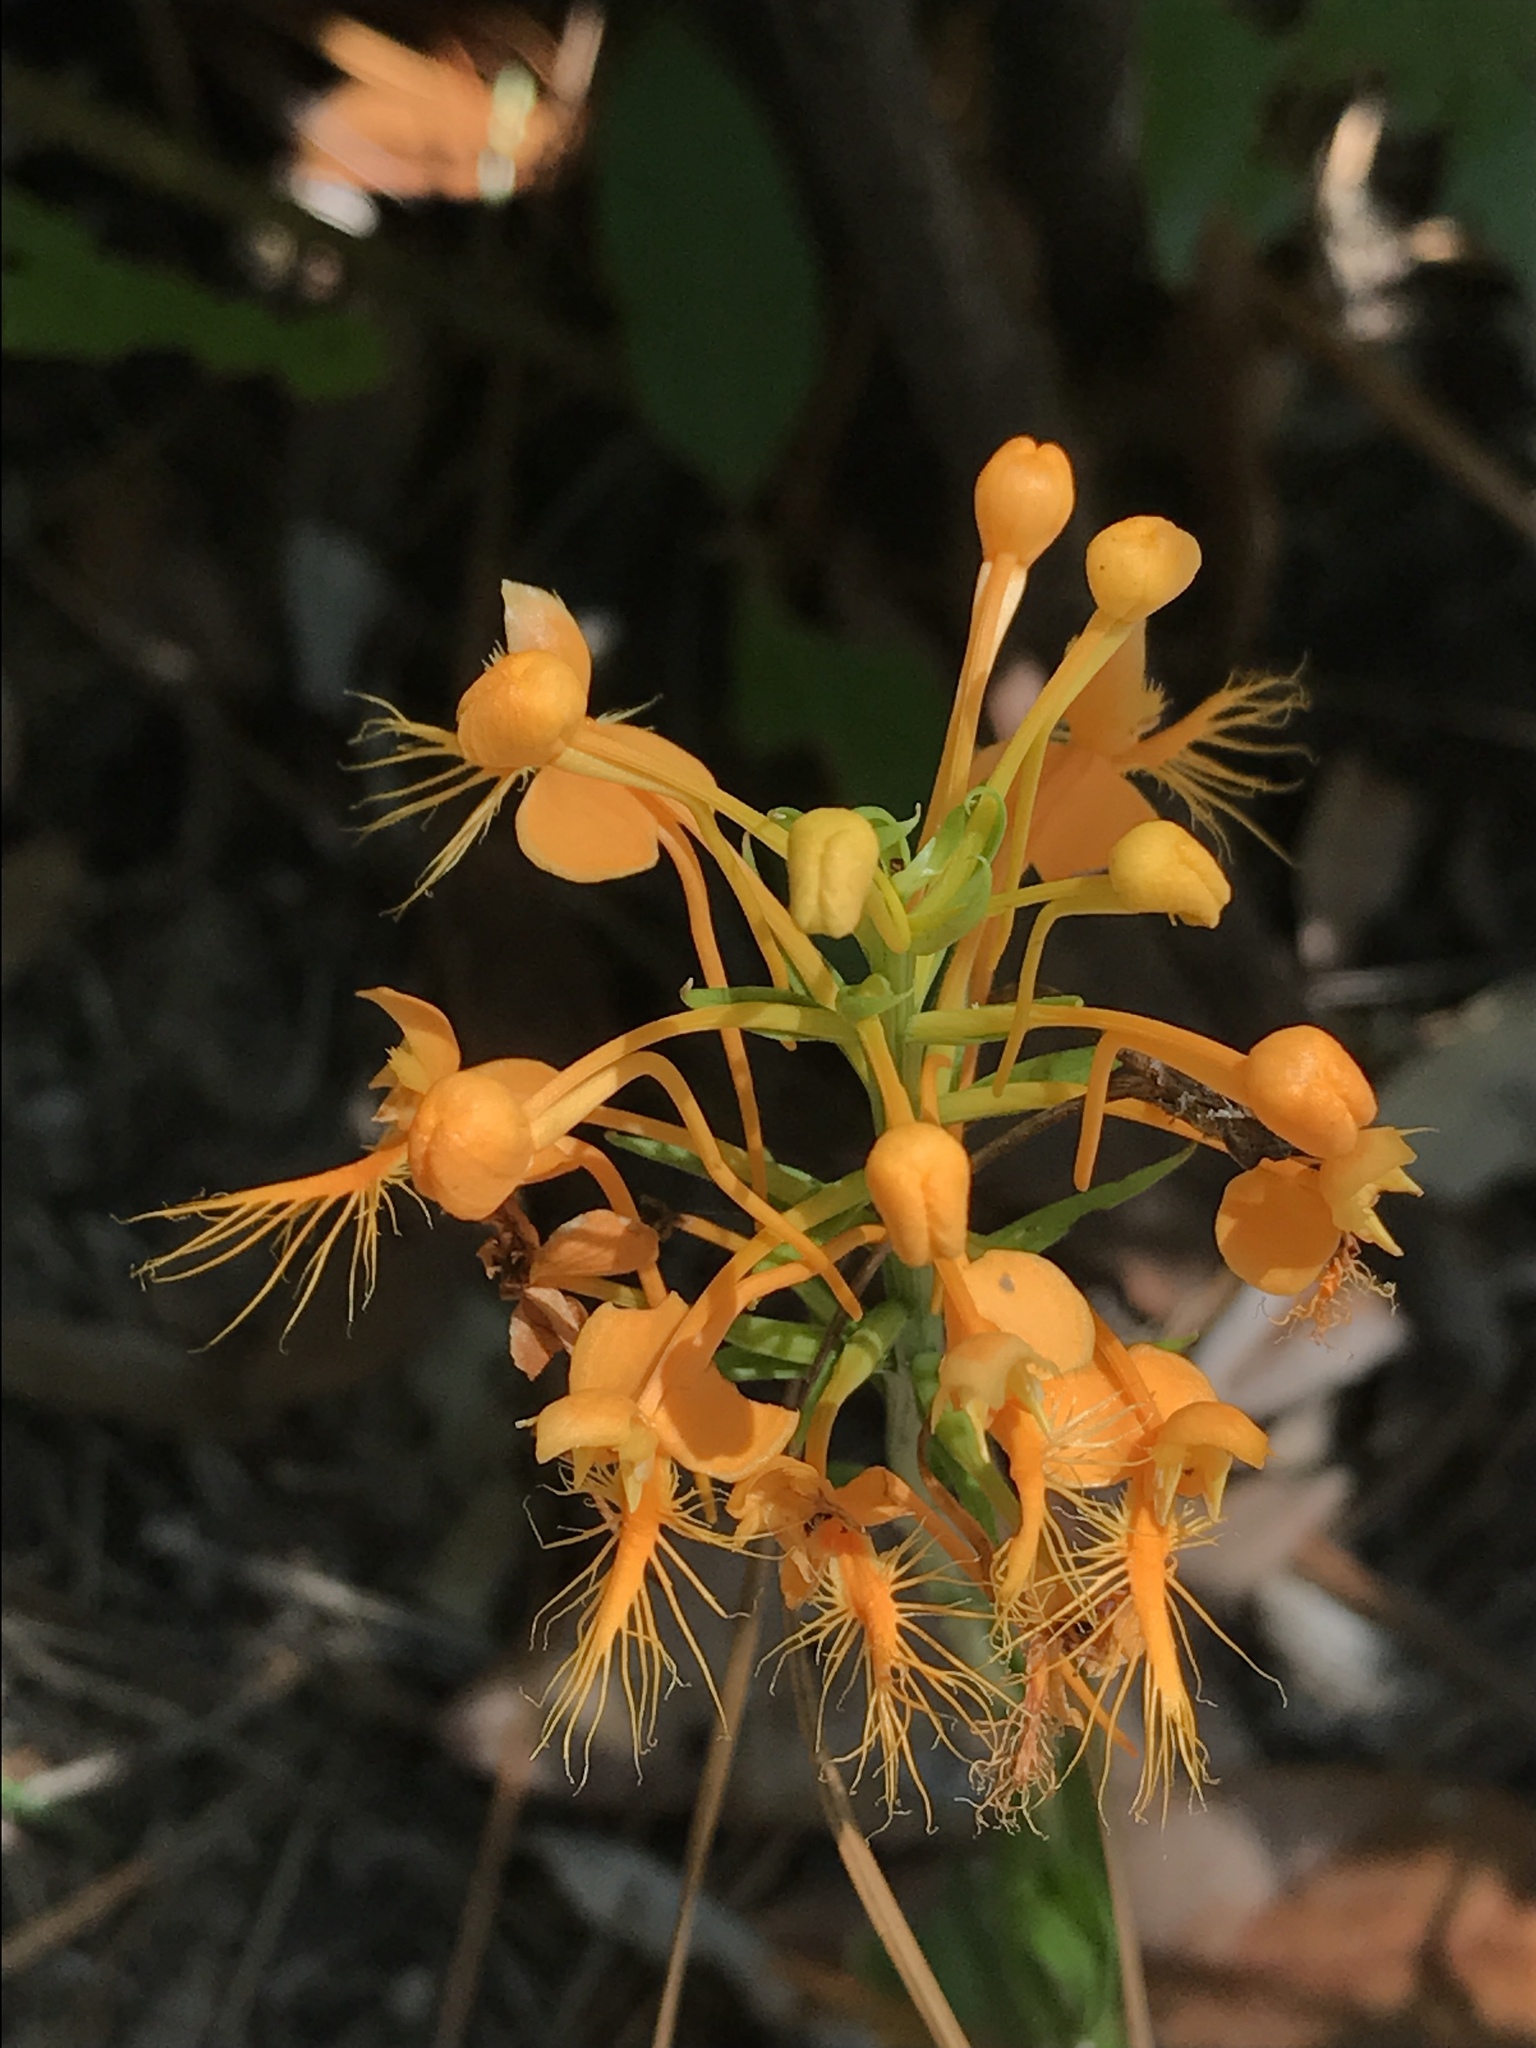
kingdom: Plantae
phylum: Tracheophyta
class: Liliopsida
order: Asparagales
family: Orchidaceae
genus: Platanthera
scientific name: Platanthera ciliaris
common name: Yellow fringed orchid
